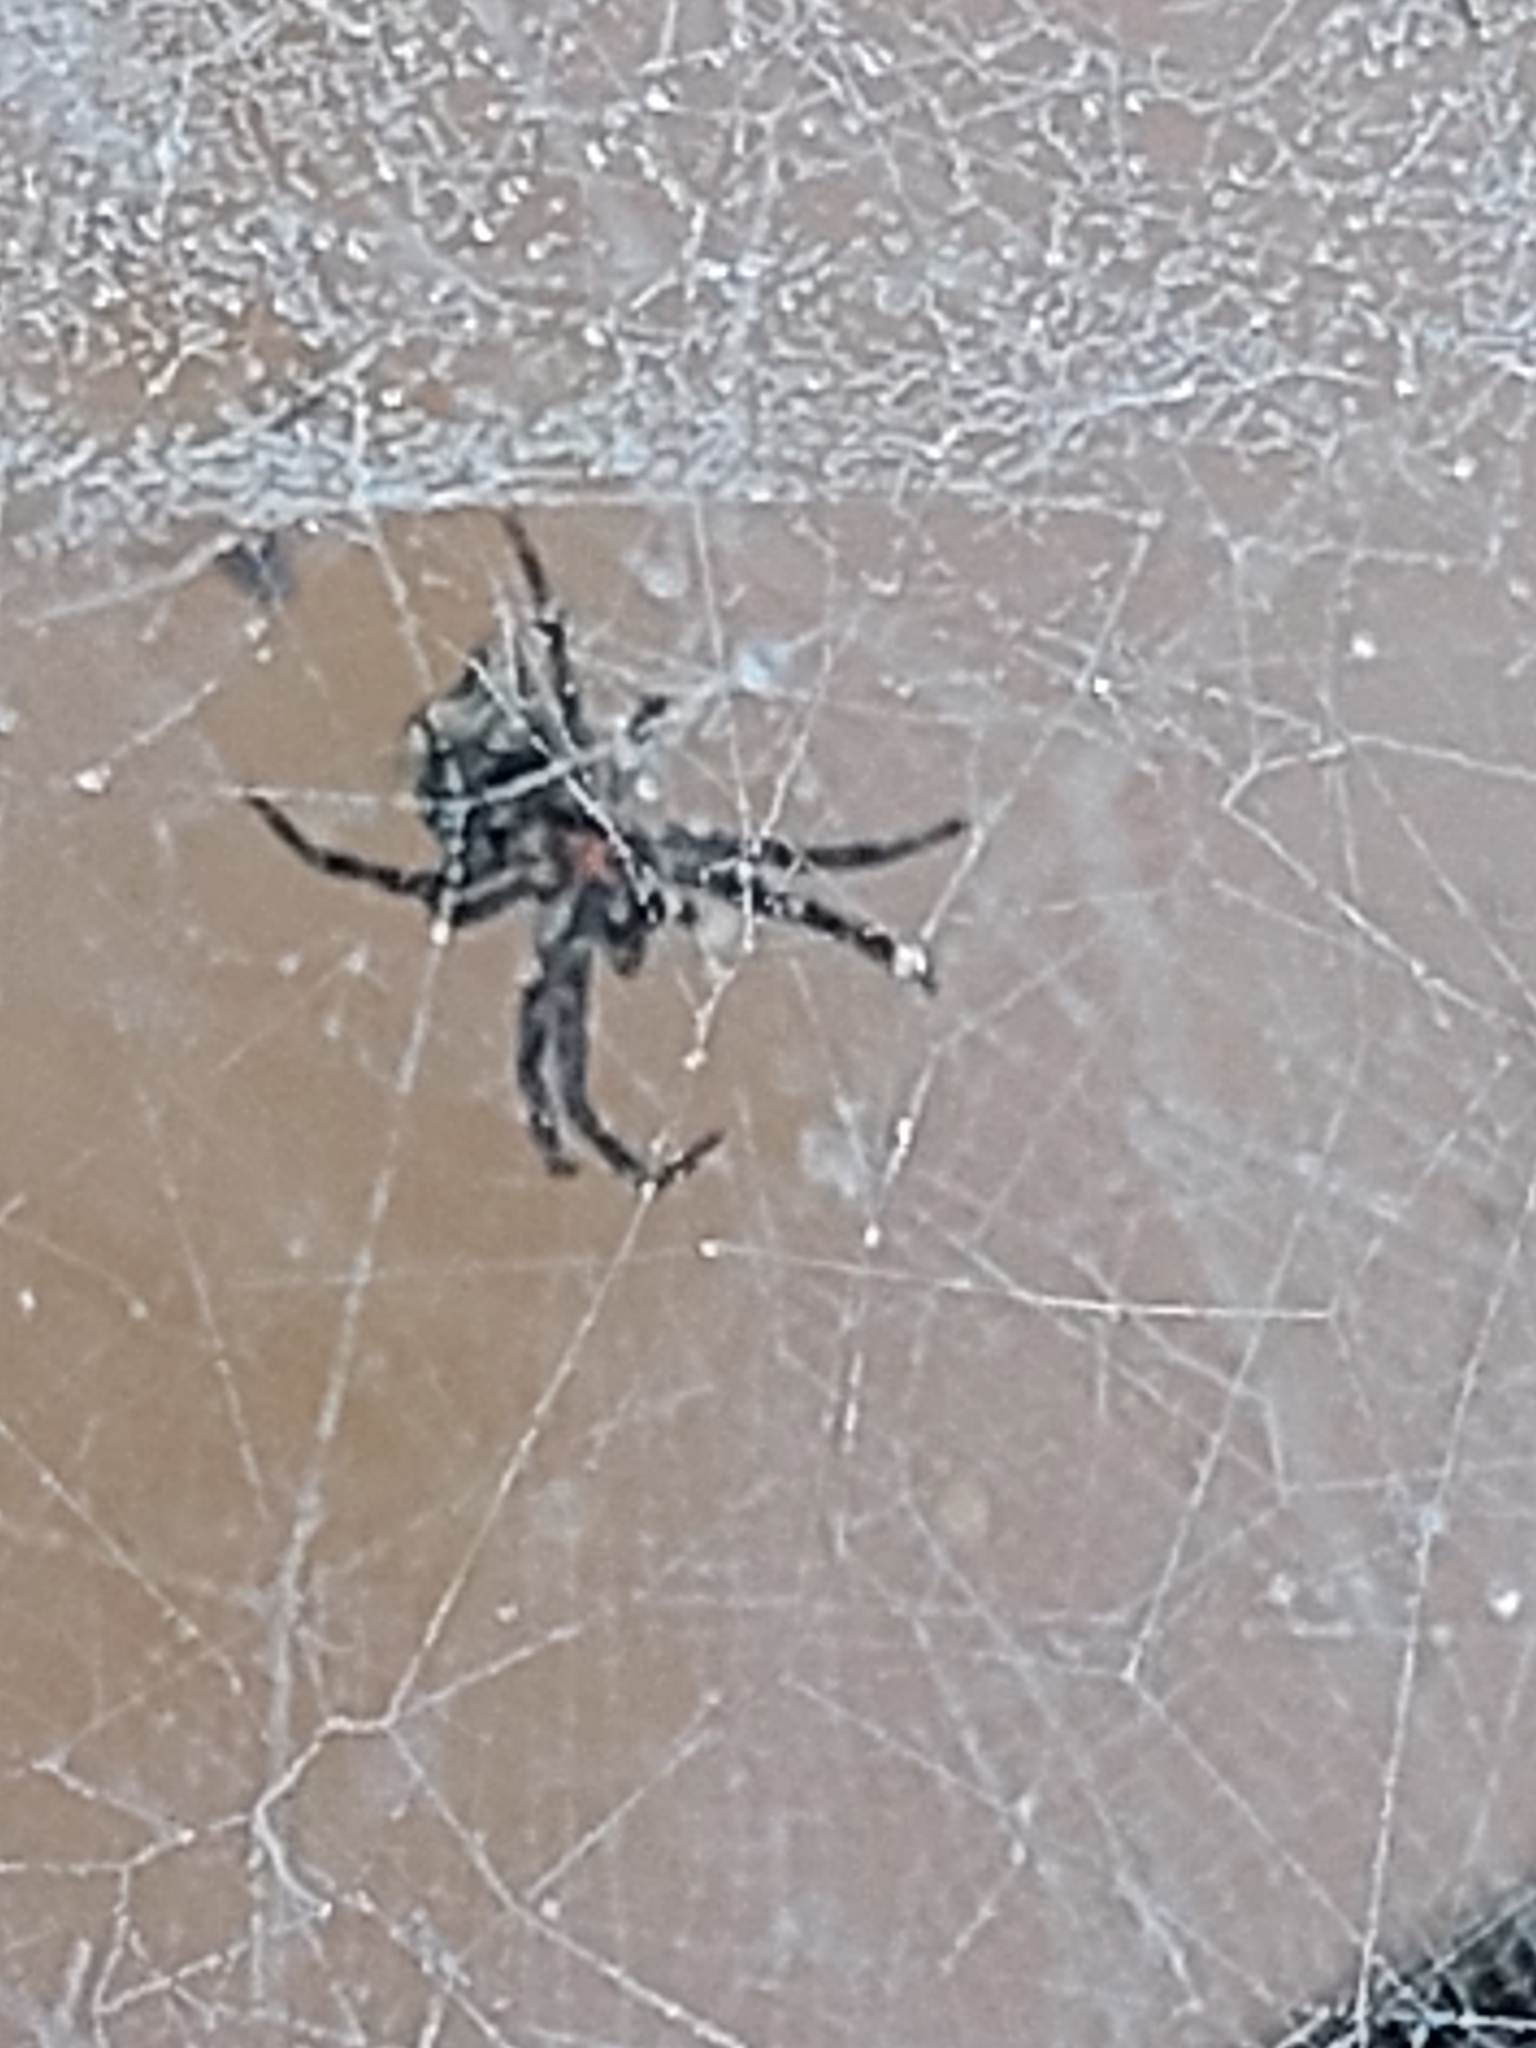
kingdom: Animalia
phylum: Arthropoda
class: Arachnida
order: Araneae
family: Araneidae
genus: Cyrtophora
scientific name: Cyrtophora citricola
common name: Orb weavers
